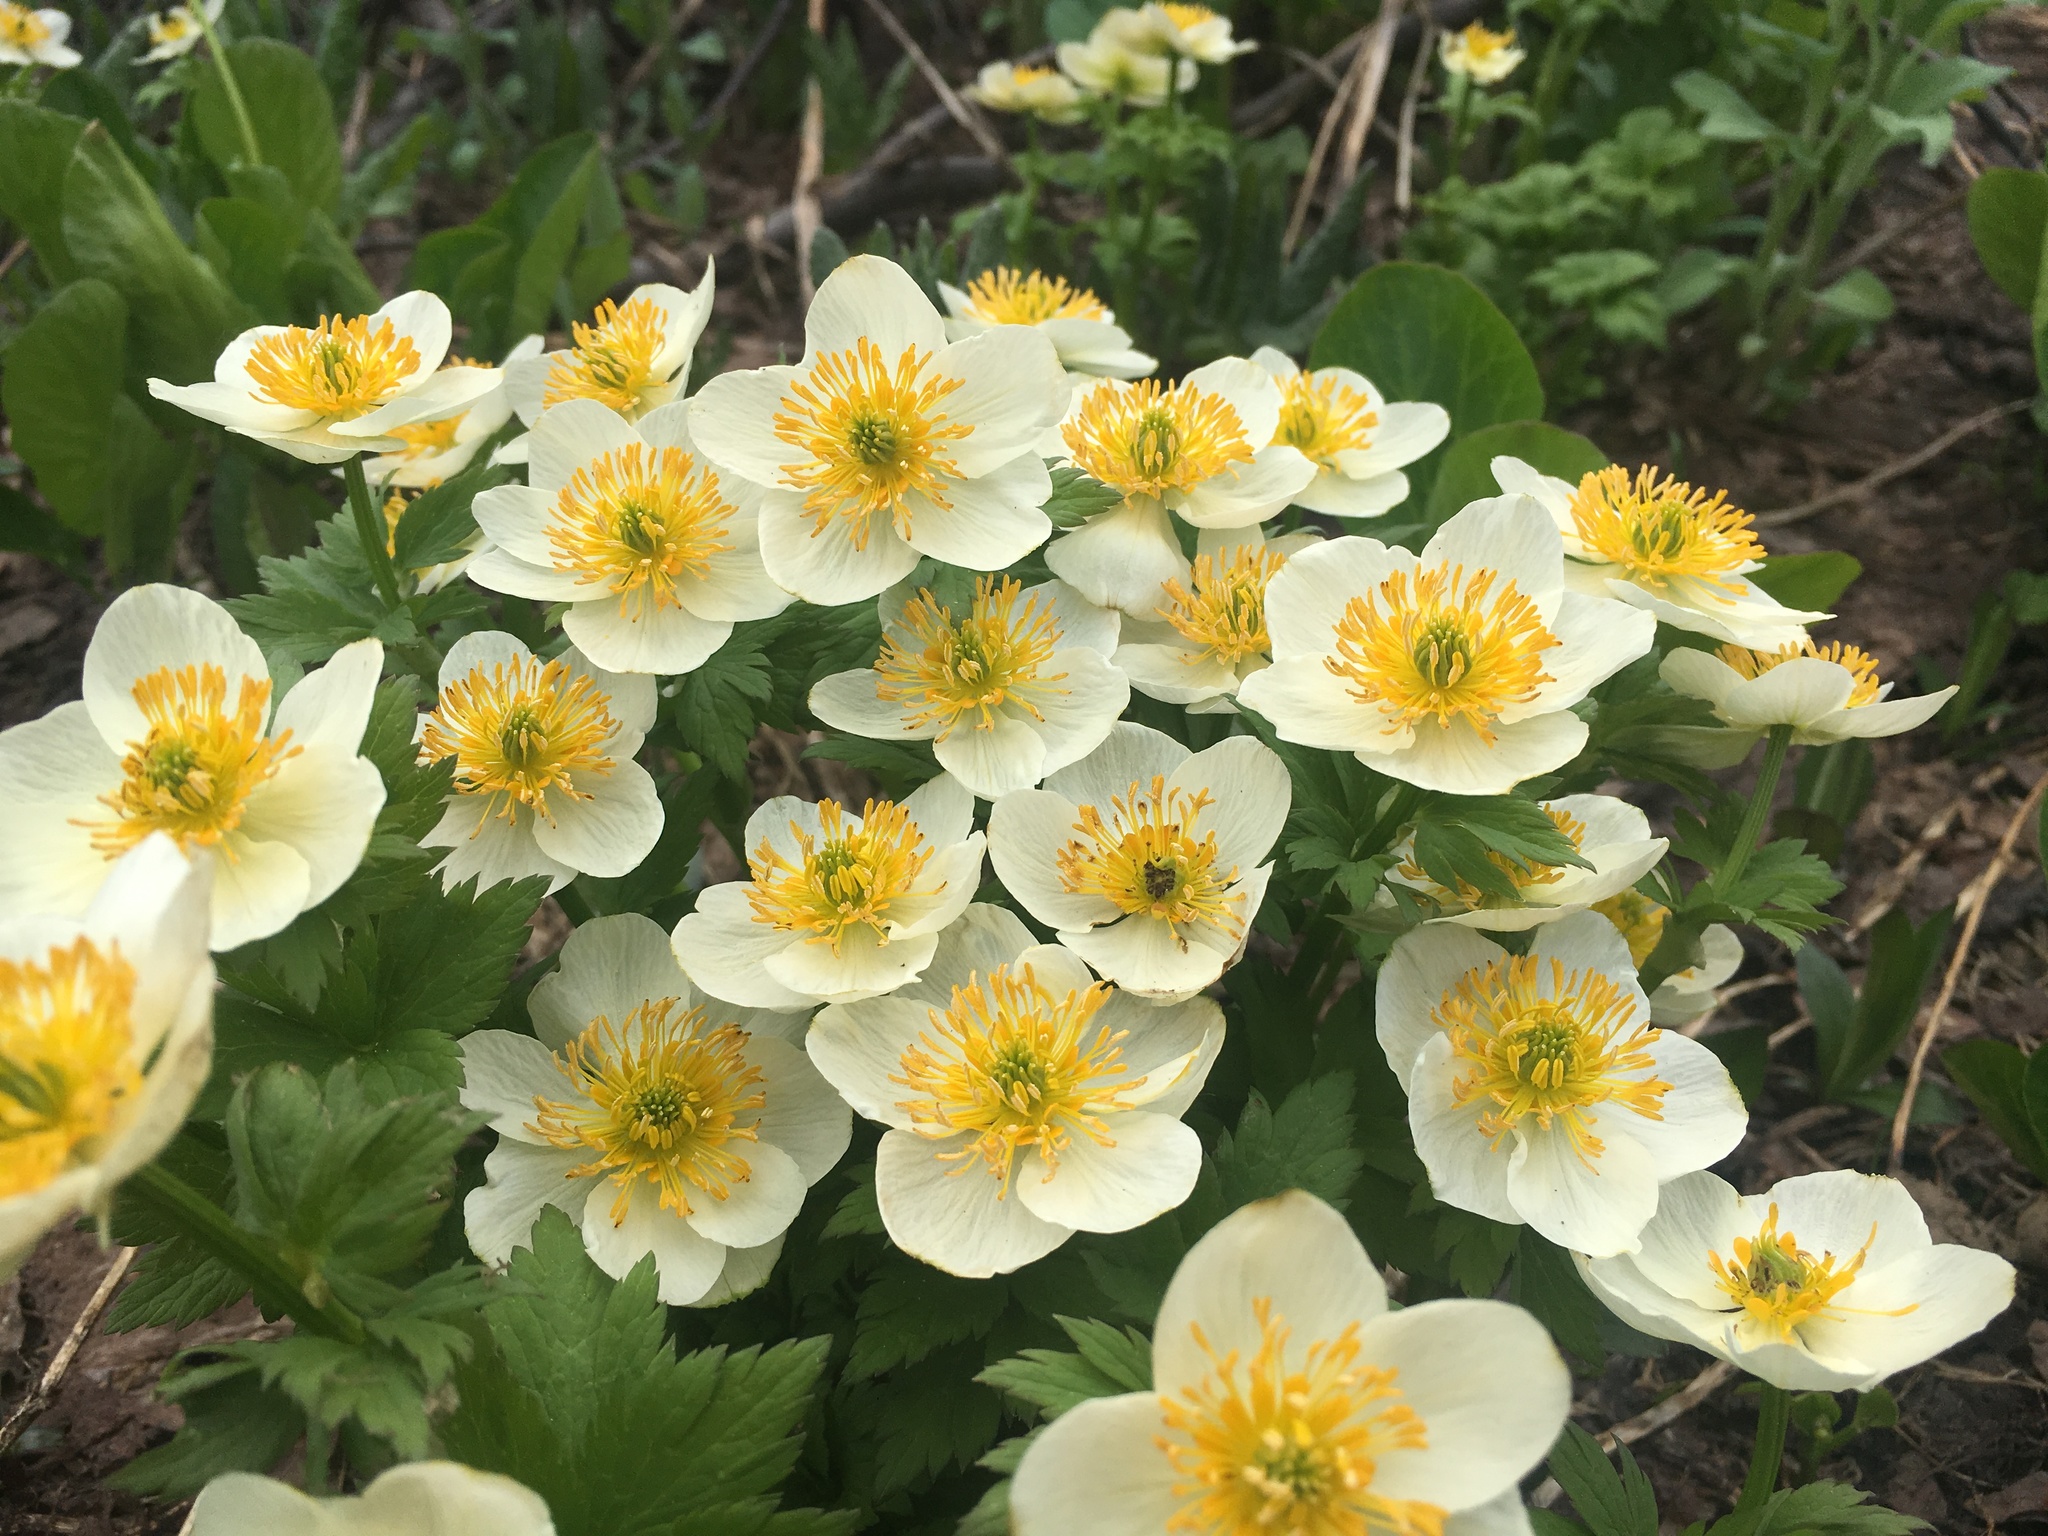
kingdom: Plantae
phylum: Tracheophyta
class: Magnoliopsida
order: Ranunculales
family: Ranunculaceae
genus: Trollius
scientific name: Trollius laxus
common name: American globeflower
